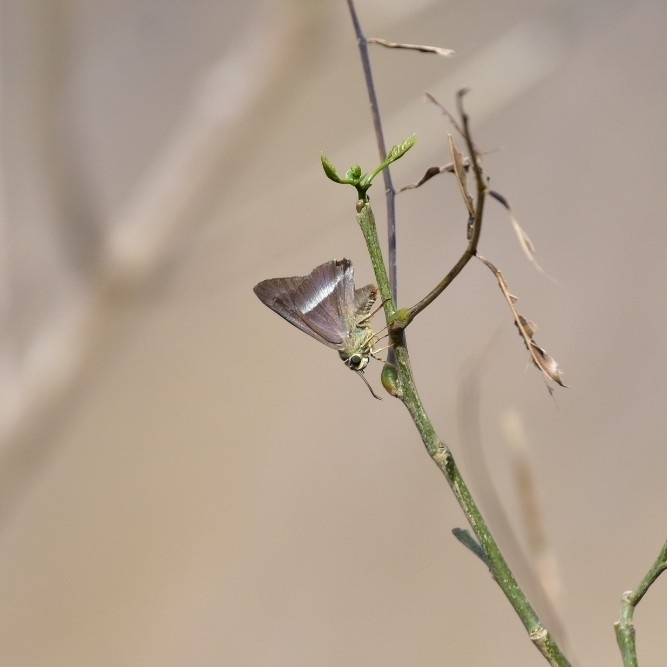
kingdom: Animalia
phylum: Arthropoda
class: Insecta
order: Lepidoptera
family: Hesperiidae
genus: Hasora
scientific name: Hasora chromus
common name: Common banded awl
